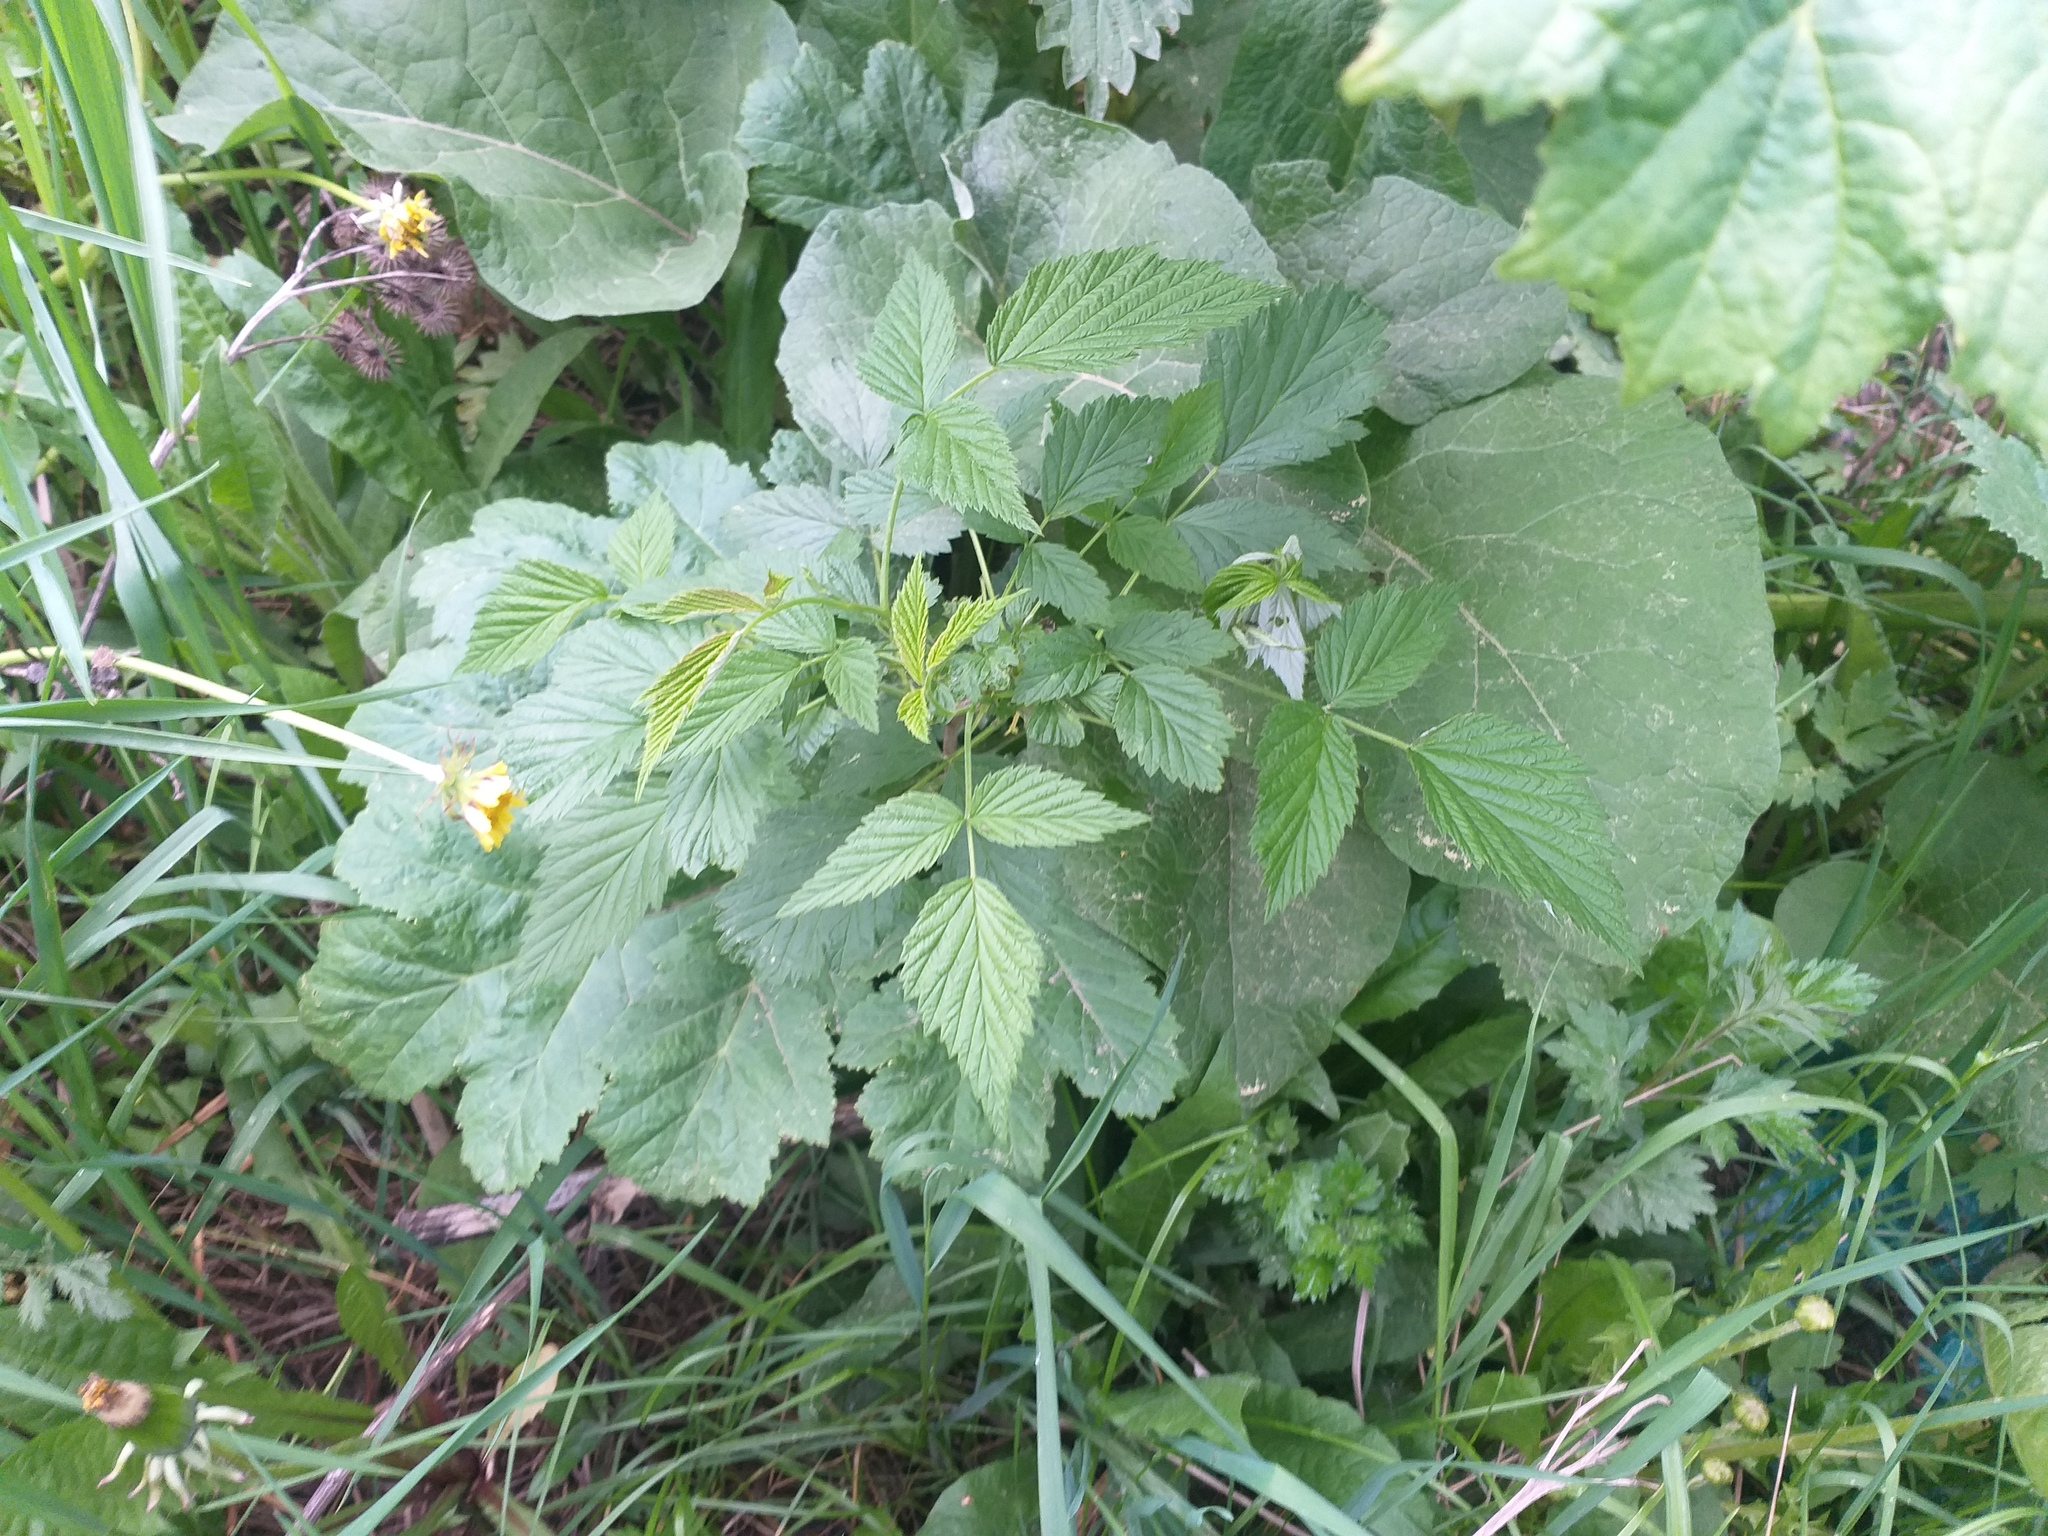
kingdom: Plantae
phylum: Tracheophyta
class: Magnoliopsida
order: Rosales
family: Rosaceae
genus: Rubus
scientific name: Rubus idaeus
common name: Raspberry
